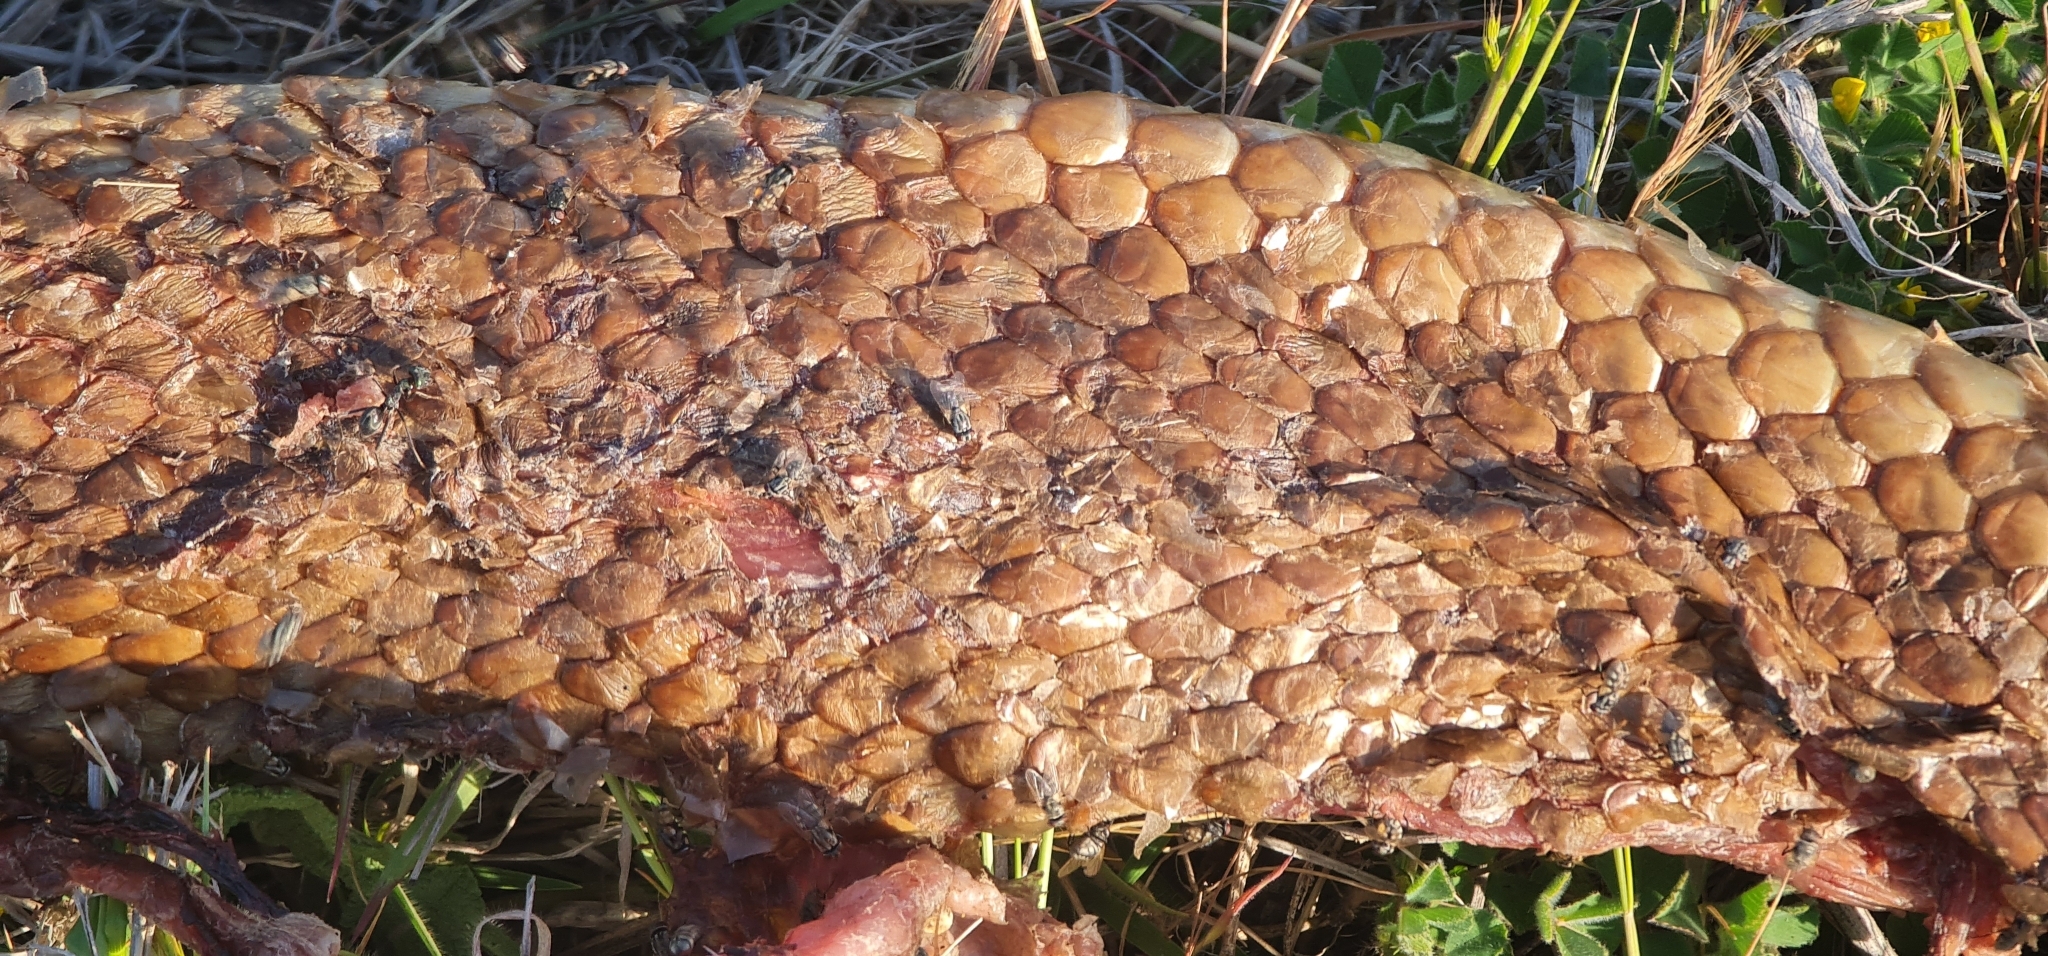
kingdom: Animalia
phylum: Chordata
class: Squamata
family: Elapidae
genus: Pseudechis
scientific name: Pseudechis australis
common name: King brown snake
